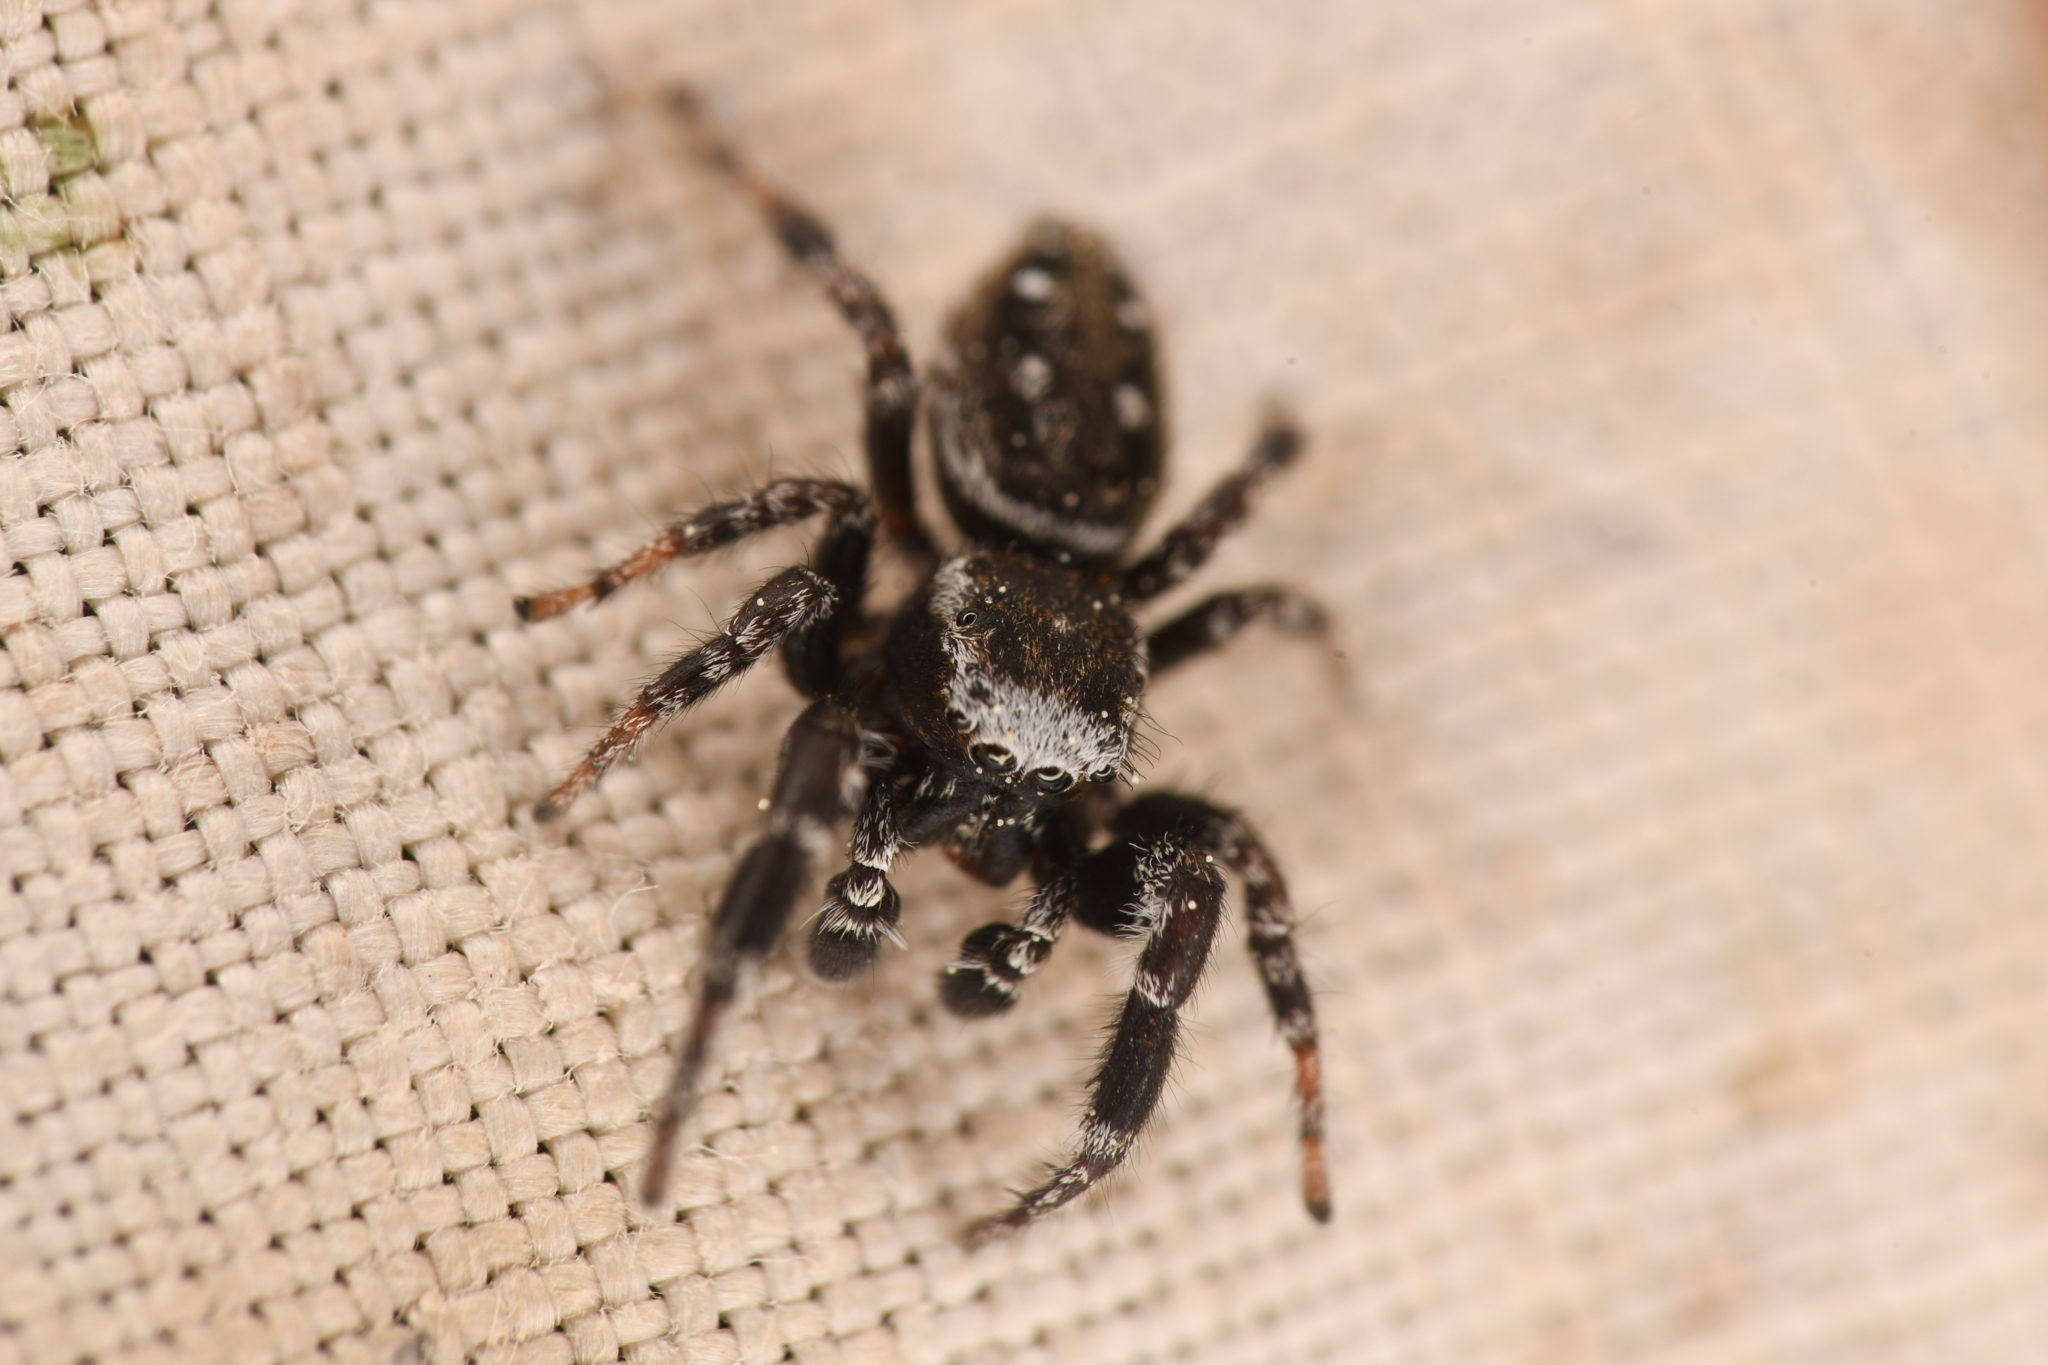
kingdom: Animalia
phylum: Arthropoda
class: Arachnida
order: Araneae
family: Salticidae
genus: Dendryphantes
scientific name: Dendryphantes nigromaculatus
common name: Black-marked jumping spider
